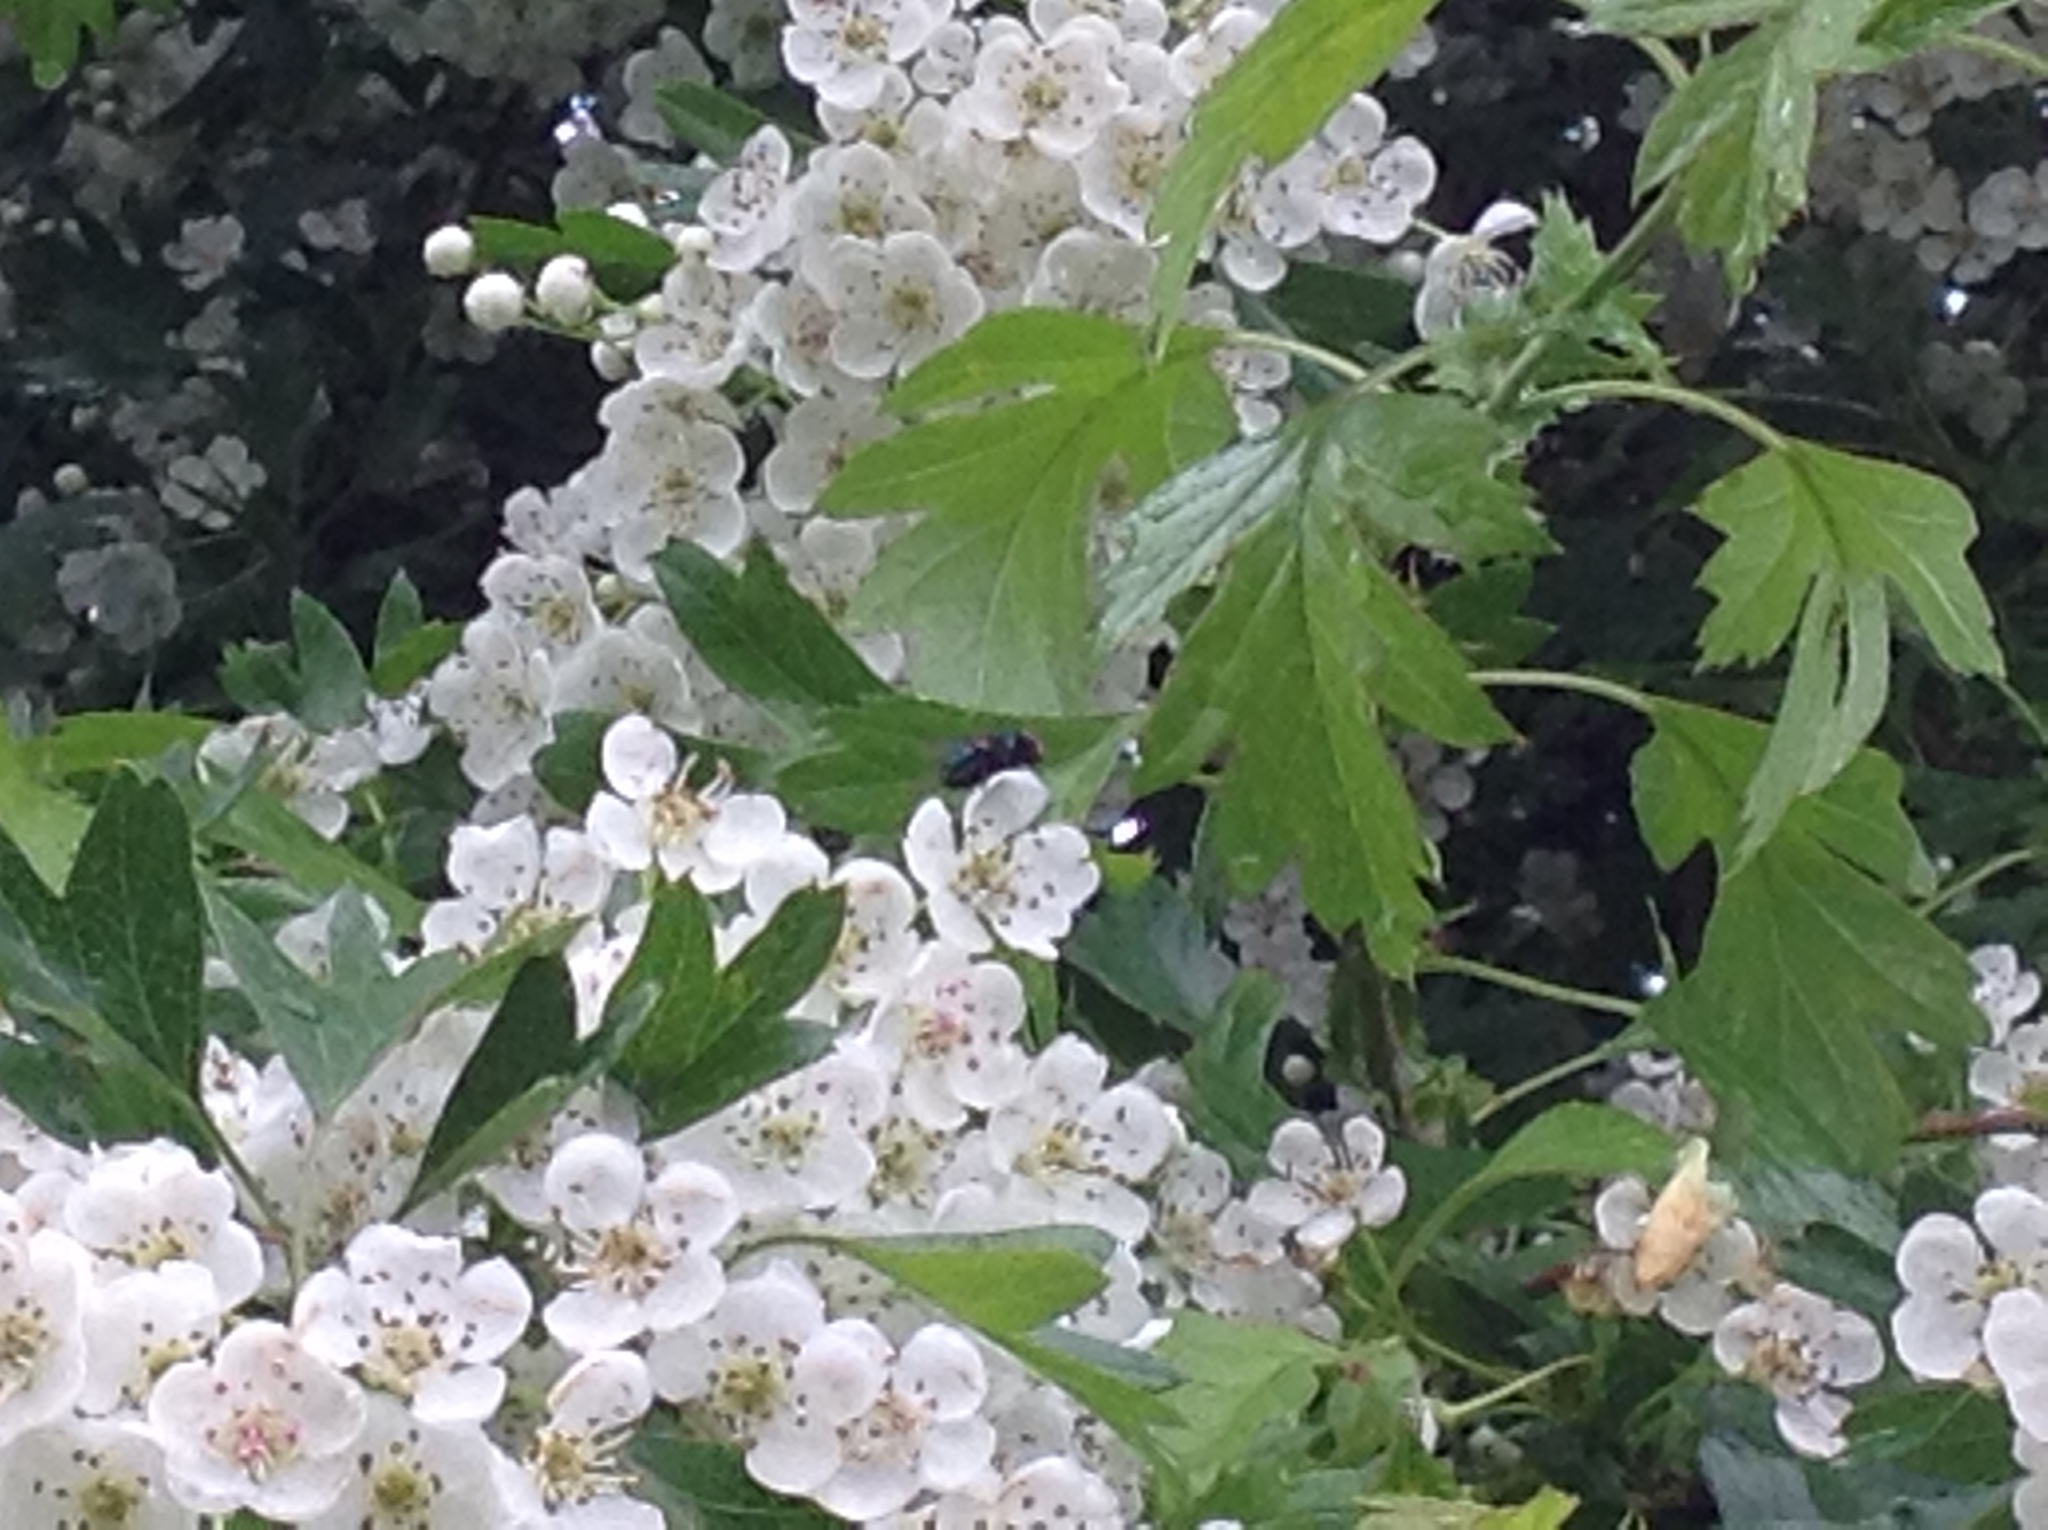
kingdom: Plantae
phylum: Tracheophyta
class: Magnoliopsida
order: Rosales
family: Rosaceae
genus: Crataegus
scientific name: Crataegus monogyna
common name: Hawthorn
